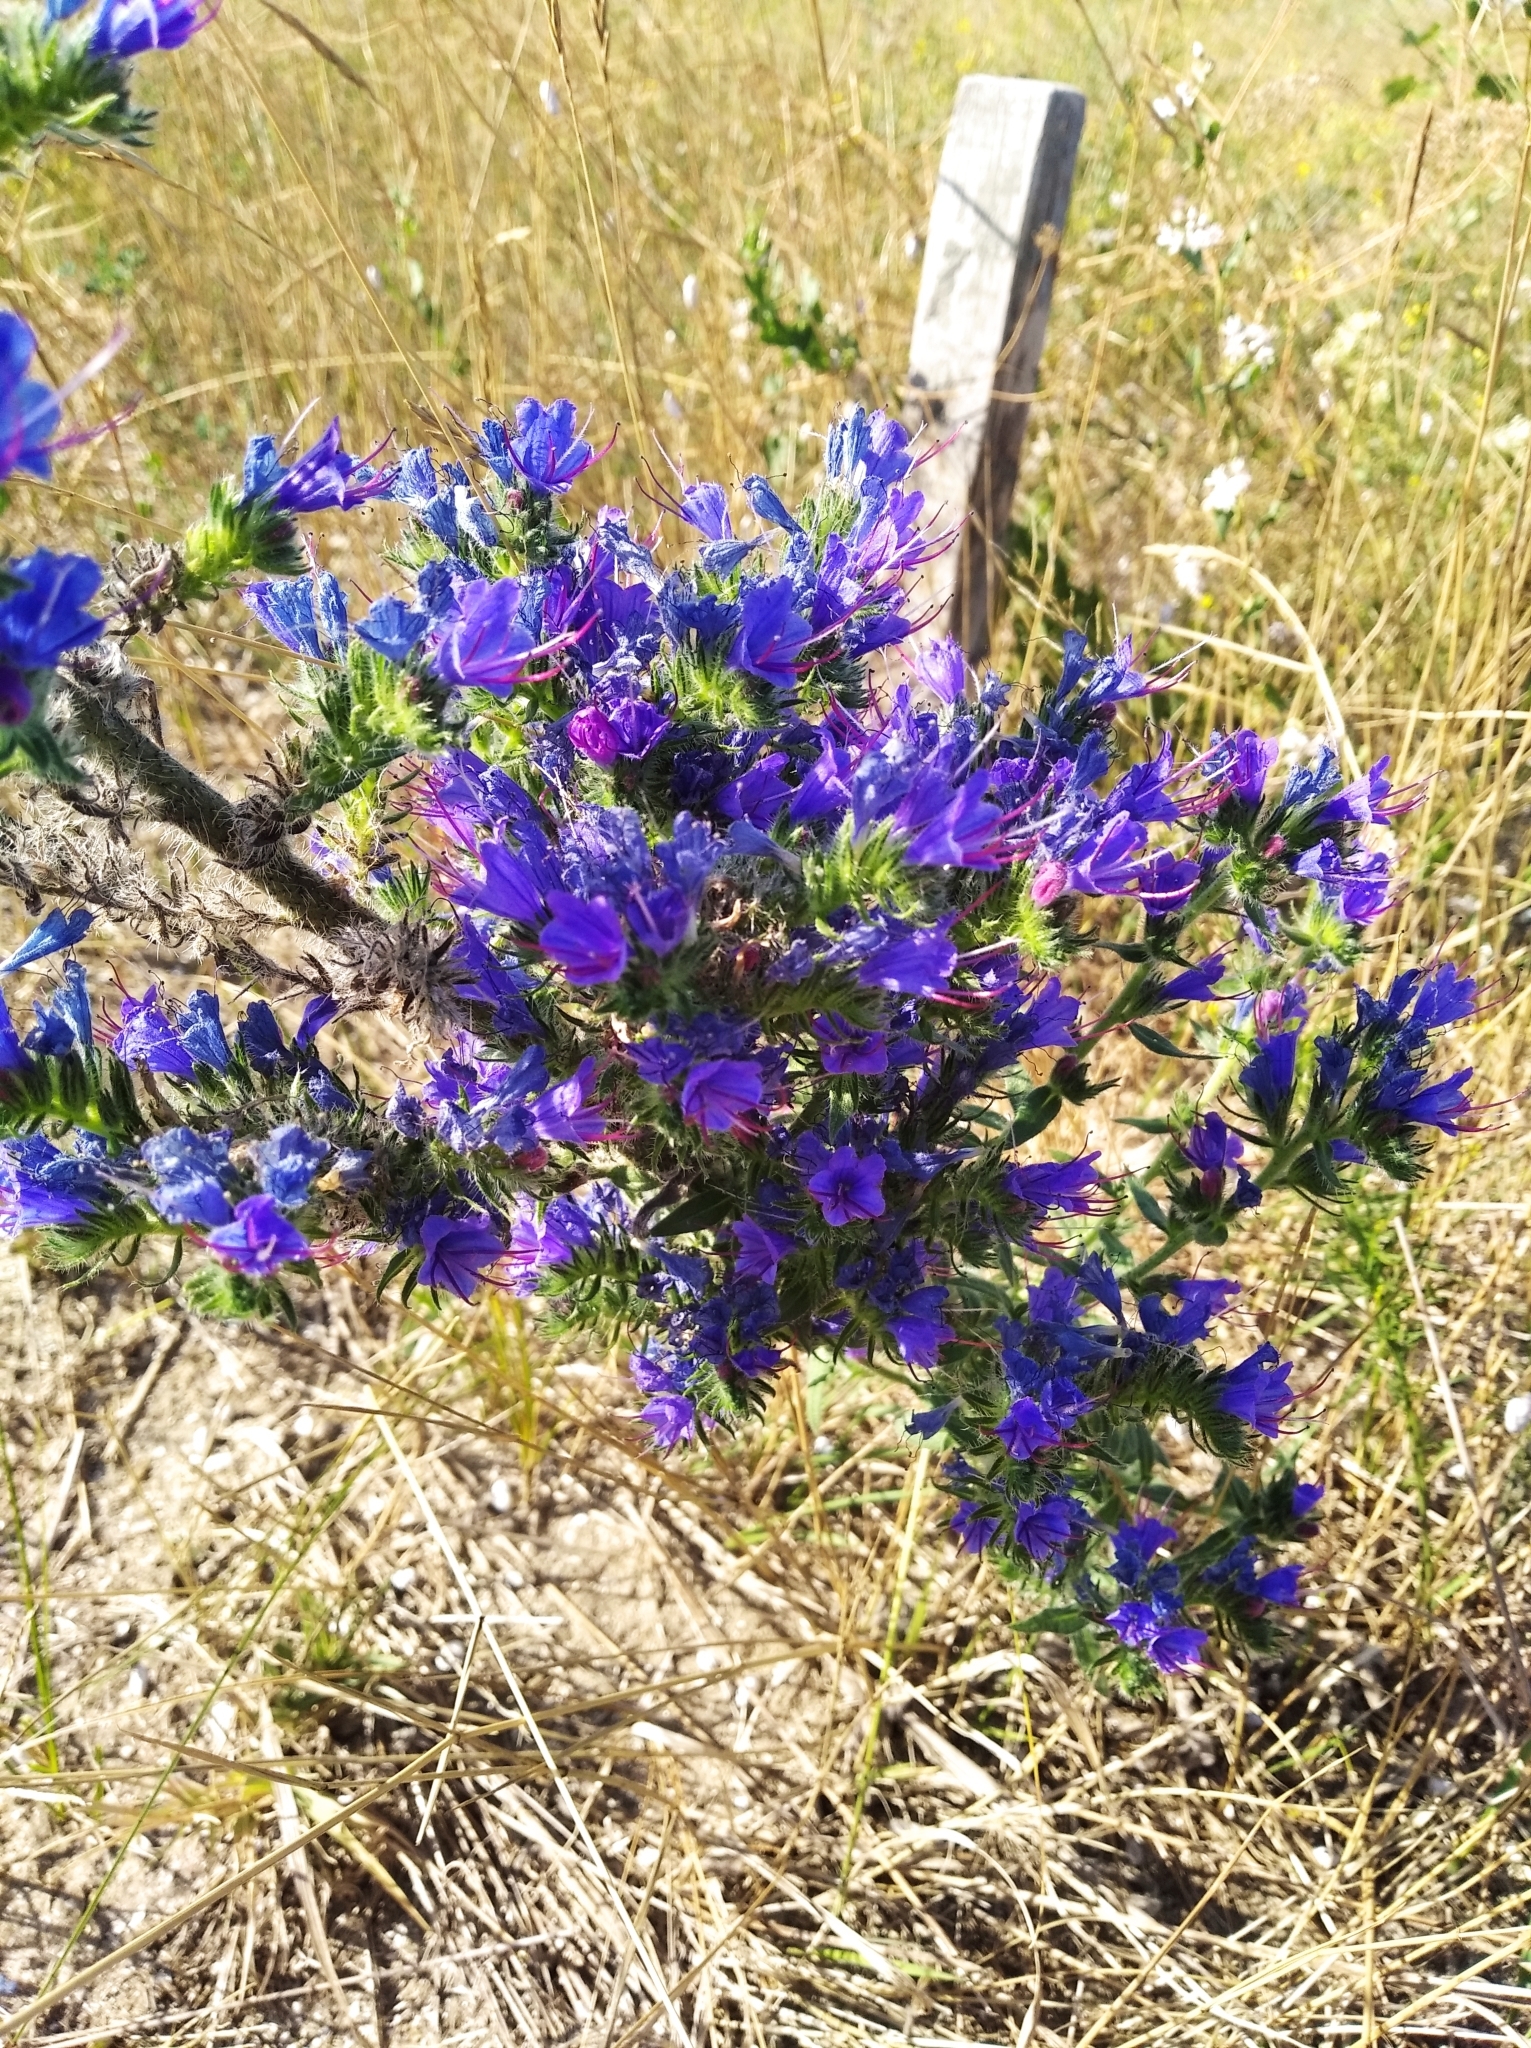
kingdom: Plantae
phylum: Tracheophyta
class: Magnoliopsida
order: Boraginales
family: Boraginaceae
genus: Echium
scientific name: Echium vulgare
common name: Common viper's bugloss
